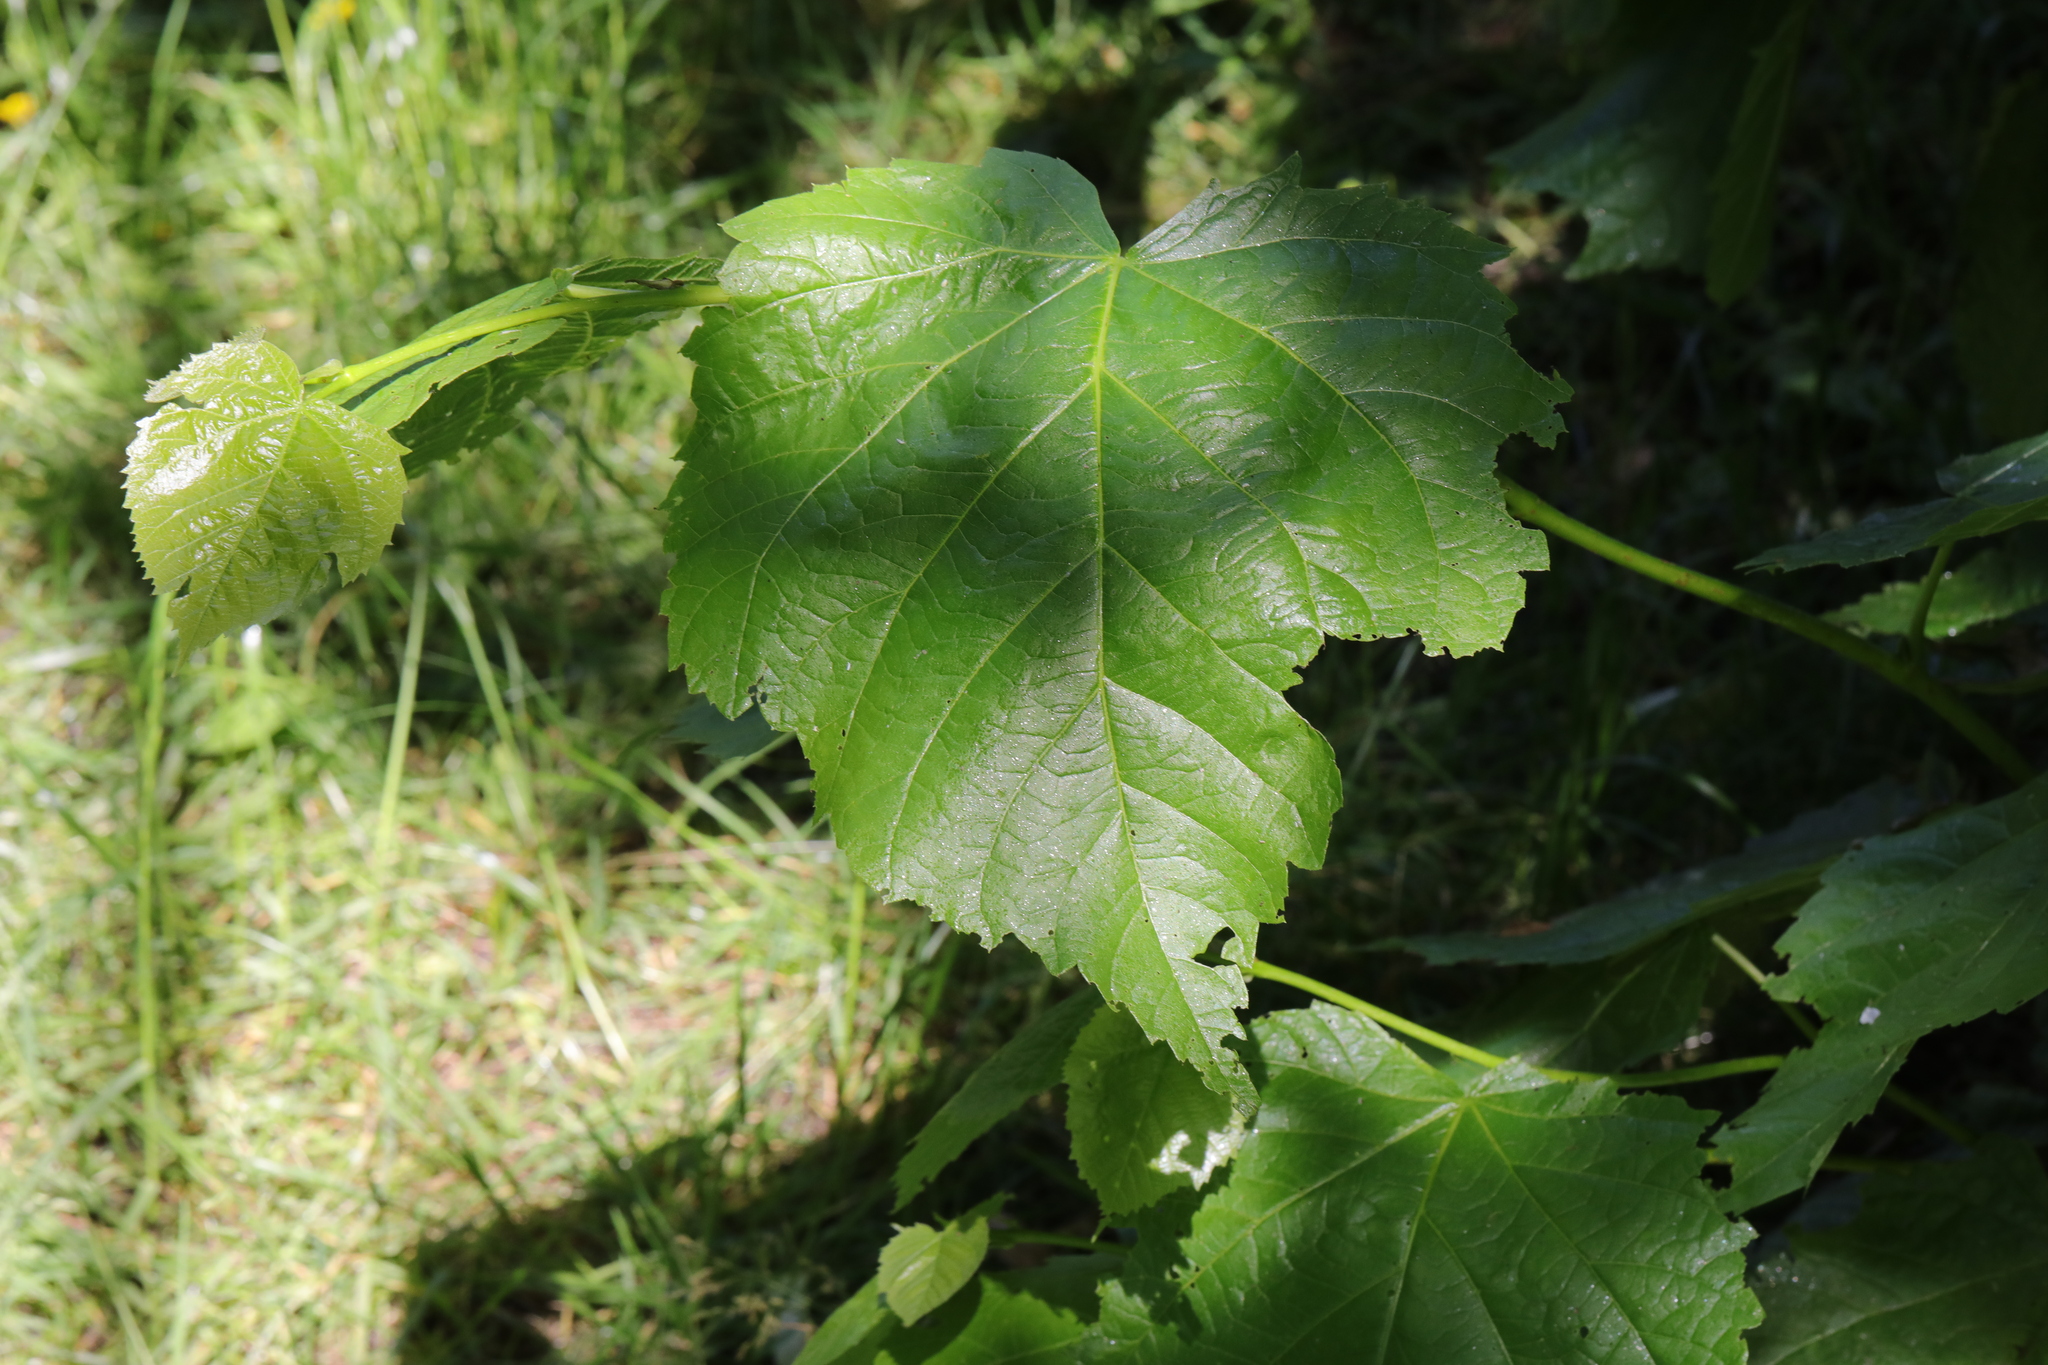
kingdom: Plantae
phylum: Tracheophyta
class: Magnoliopsida
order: Malvales
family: Malvaceae
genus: Tilia
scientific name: Tilia europaea
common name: European linden
